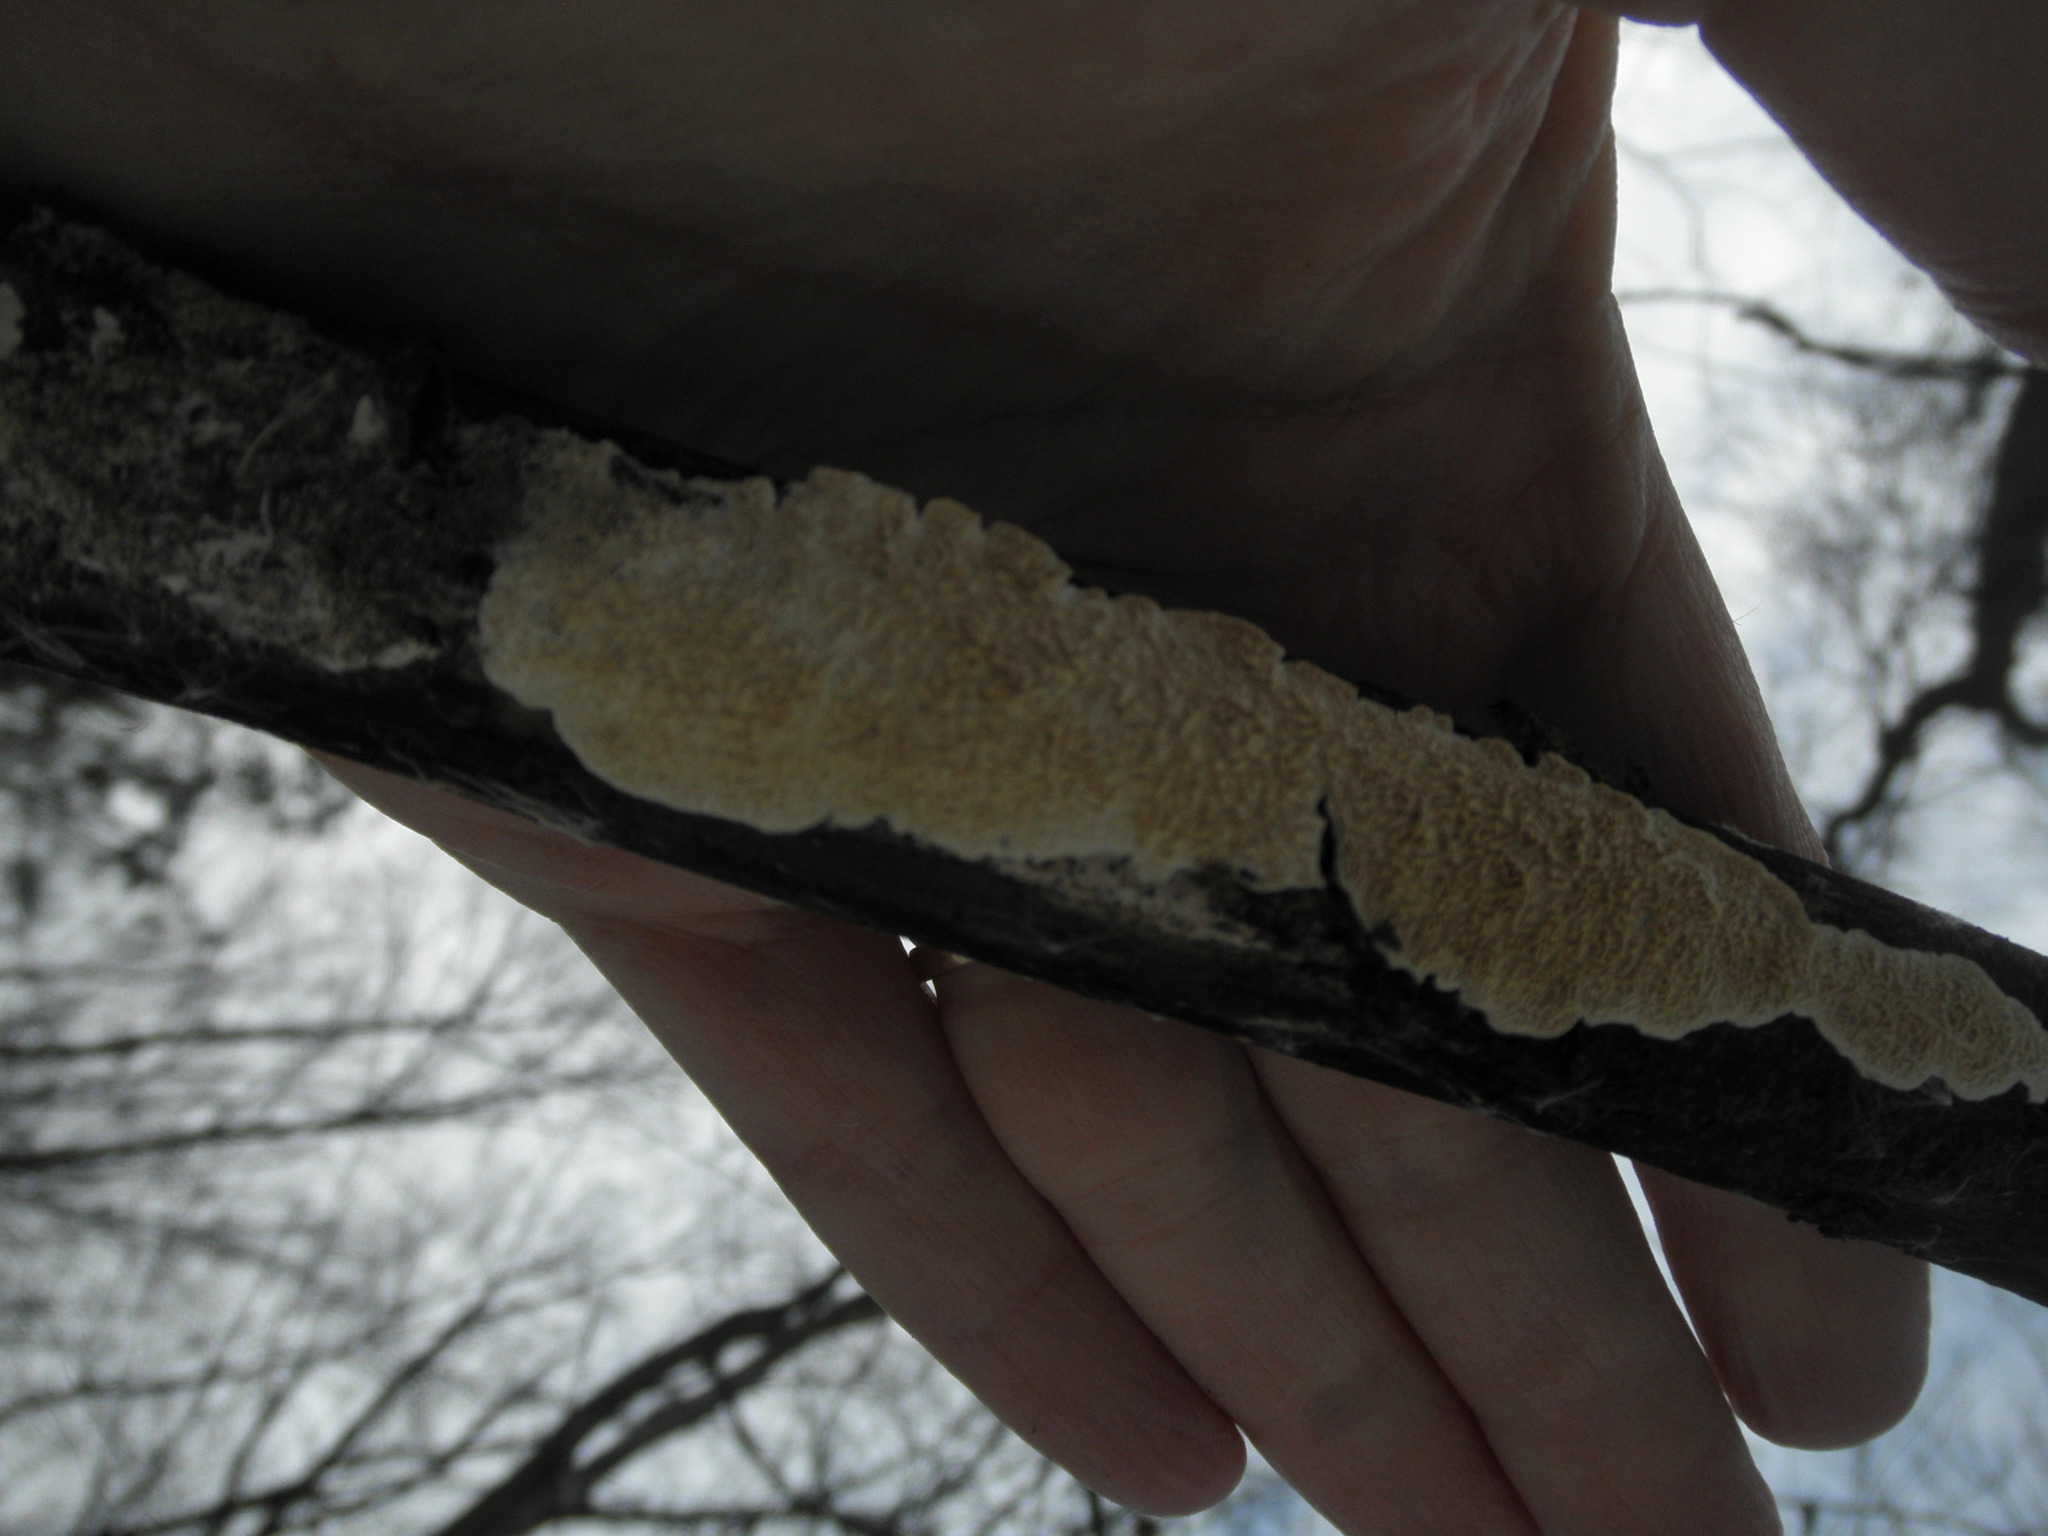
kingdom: Fungi
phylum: Basidiomycota
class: Agaricomycetes
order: Polyporales
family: Irpicaceae
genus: Irpex
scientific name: Irpex lacteus
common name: Milk-white toothed polypore
